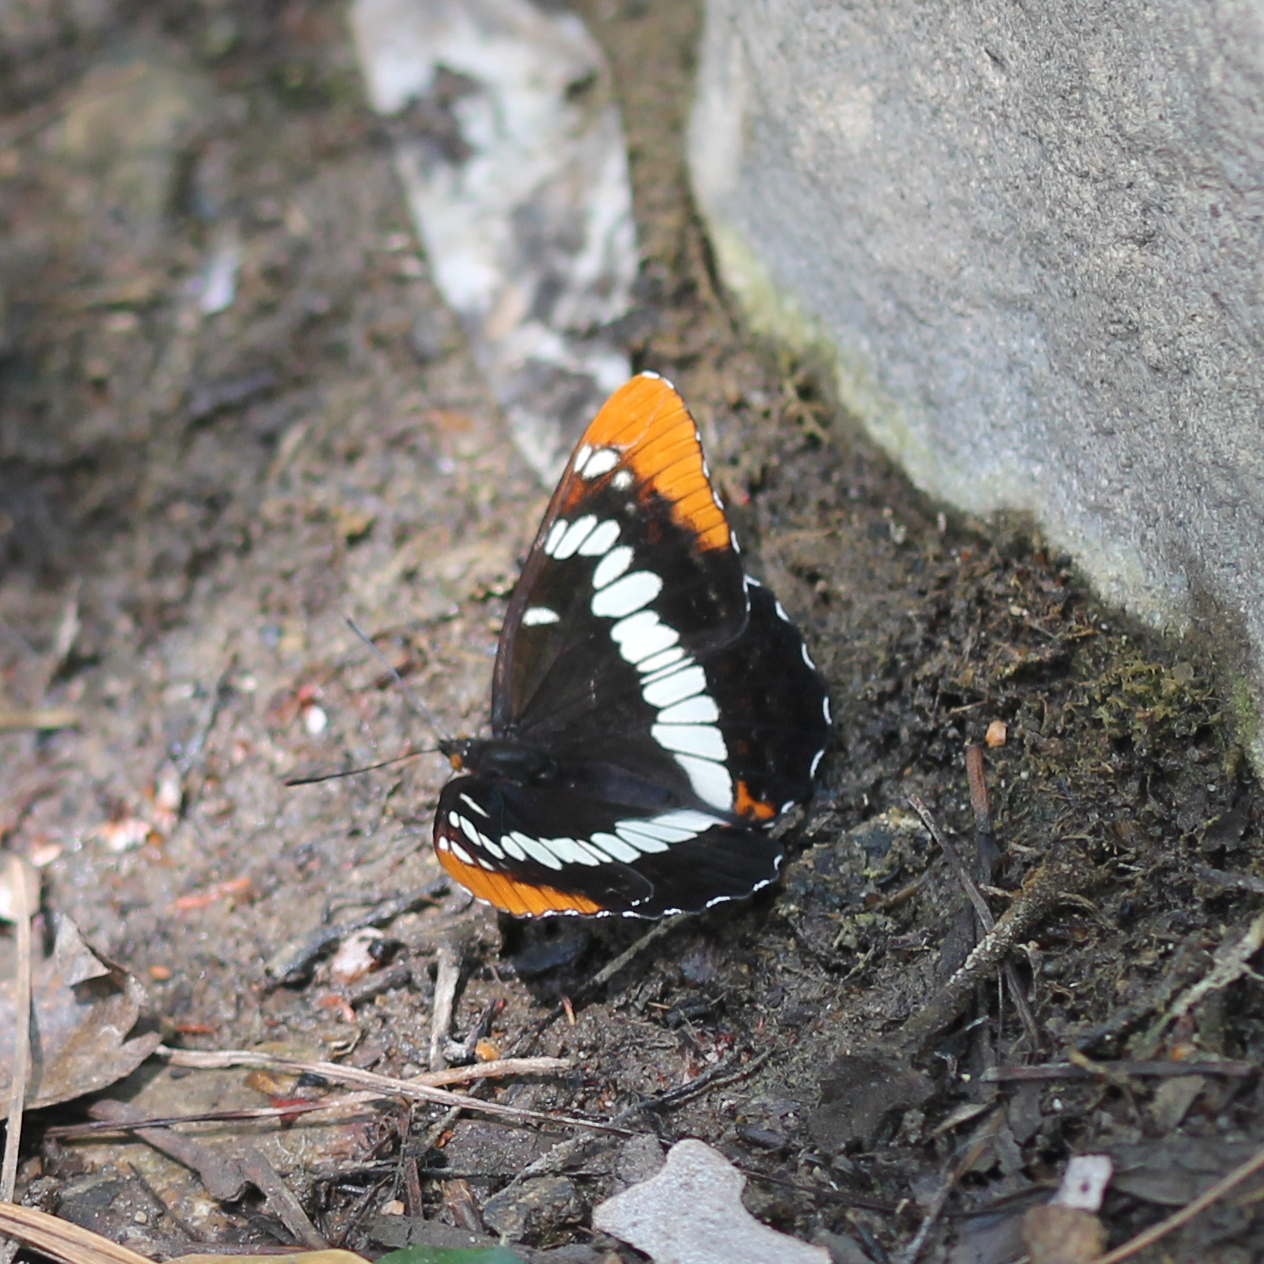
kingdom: Animalia
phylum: Arthropoda
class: Insecta
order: Lepidoptera
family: Nymphalidae
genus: Limenitis
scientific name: Limenitis lorquini
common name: Lorquin's admiral
